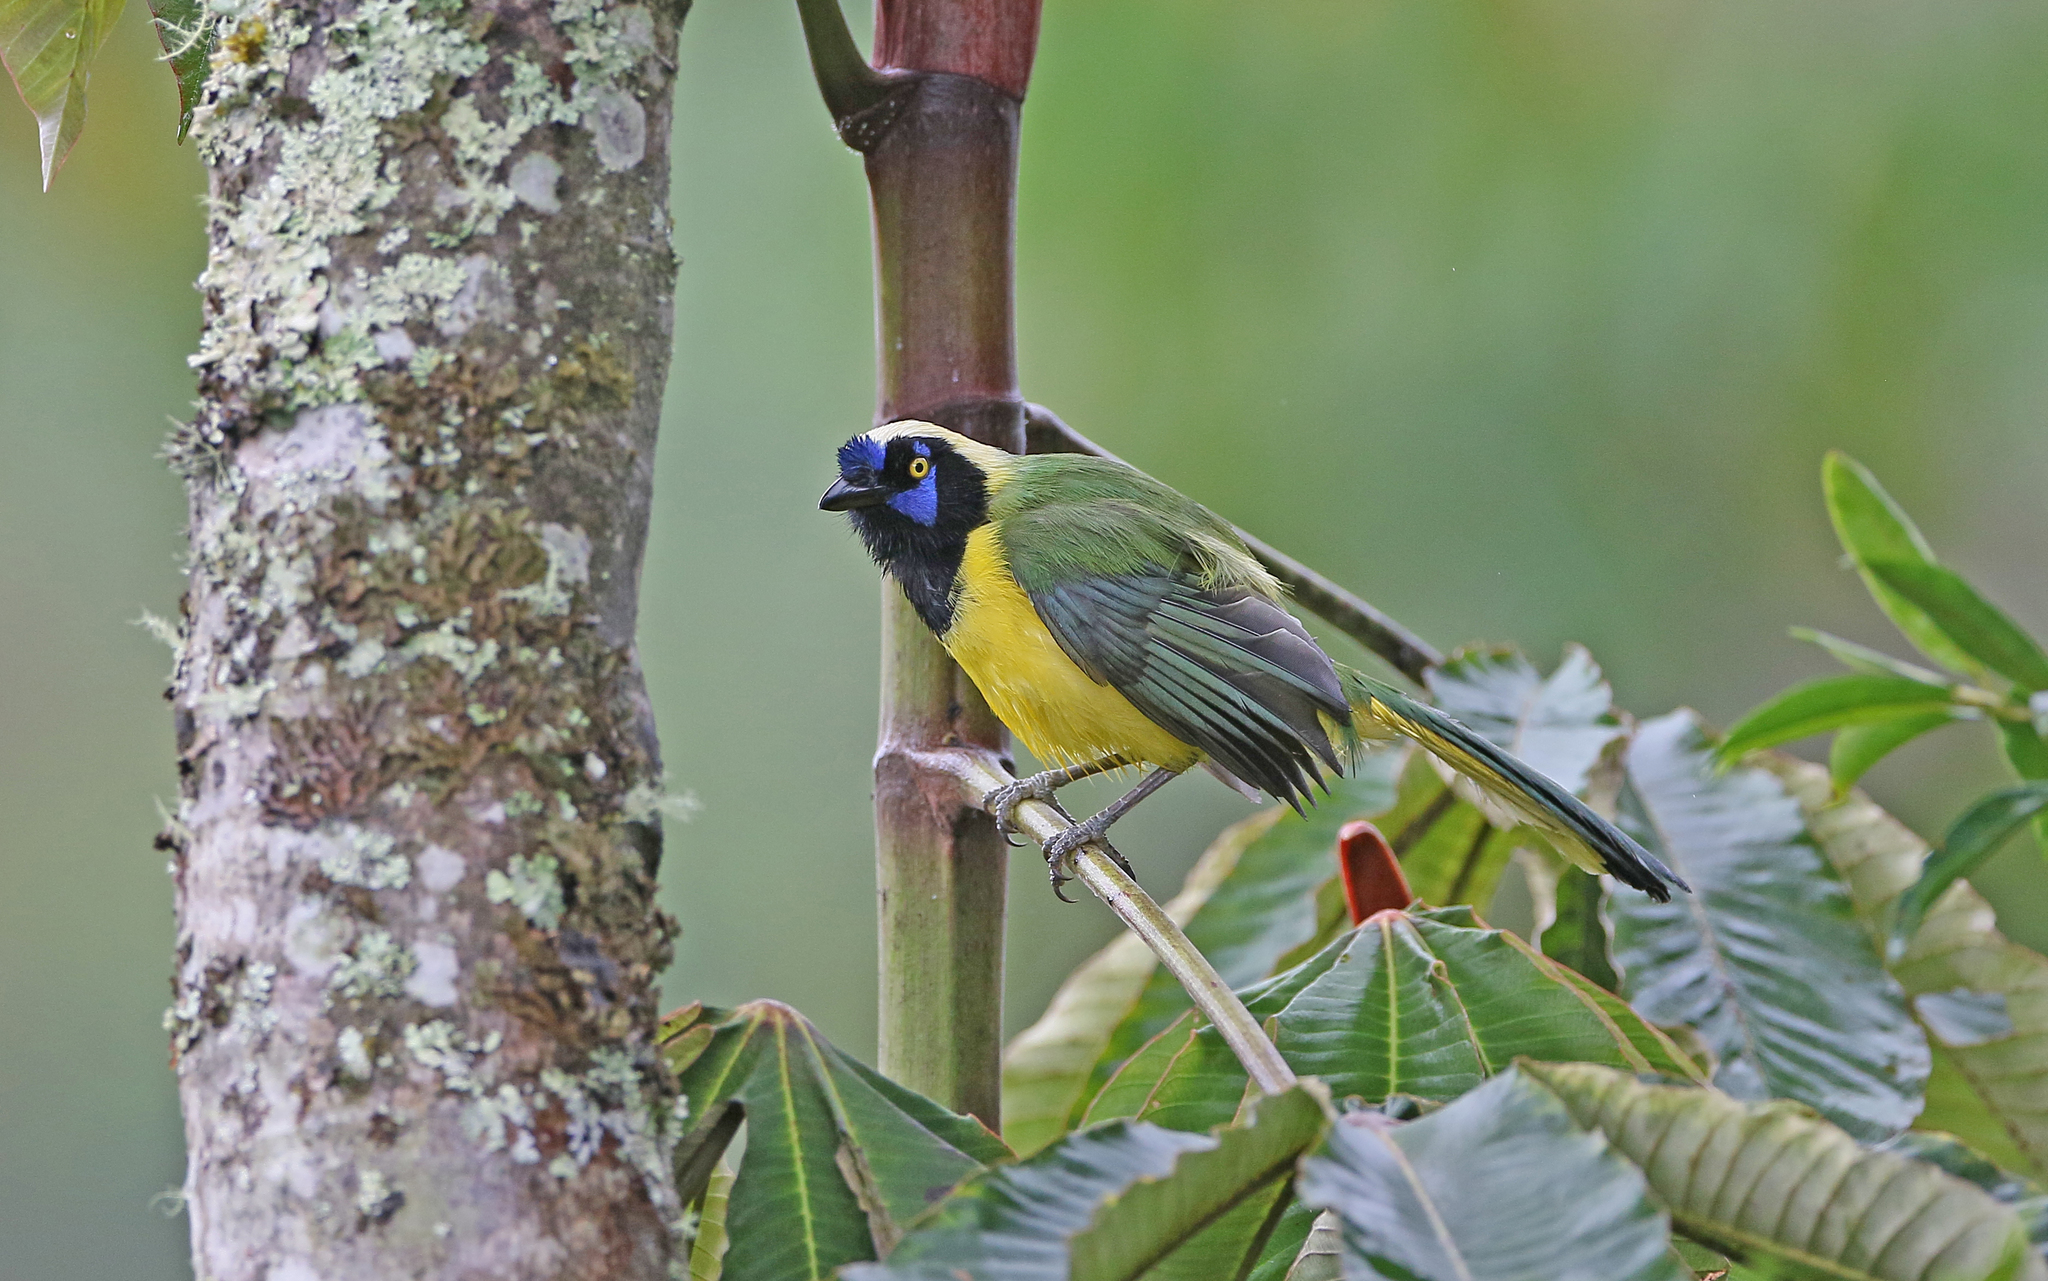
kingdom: Animalia
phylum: Chordata
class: Aves
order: Passeriformes
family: Corvidae
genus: Cyanocorax
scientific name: Cyanocorax yncas
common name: Green jay
